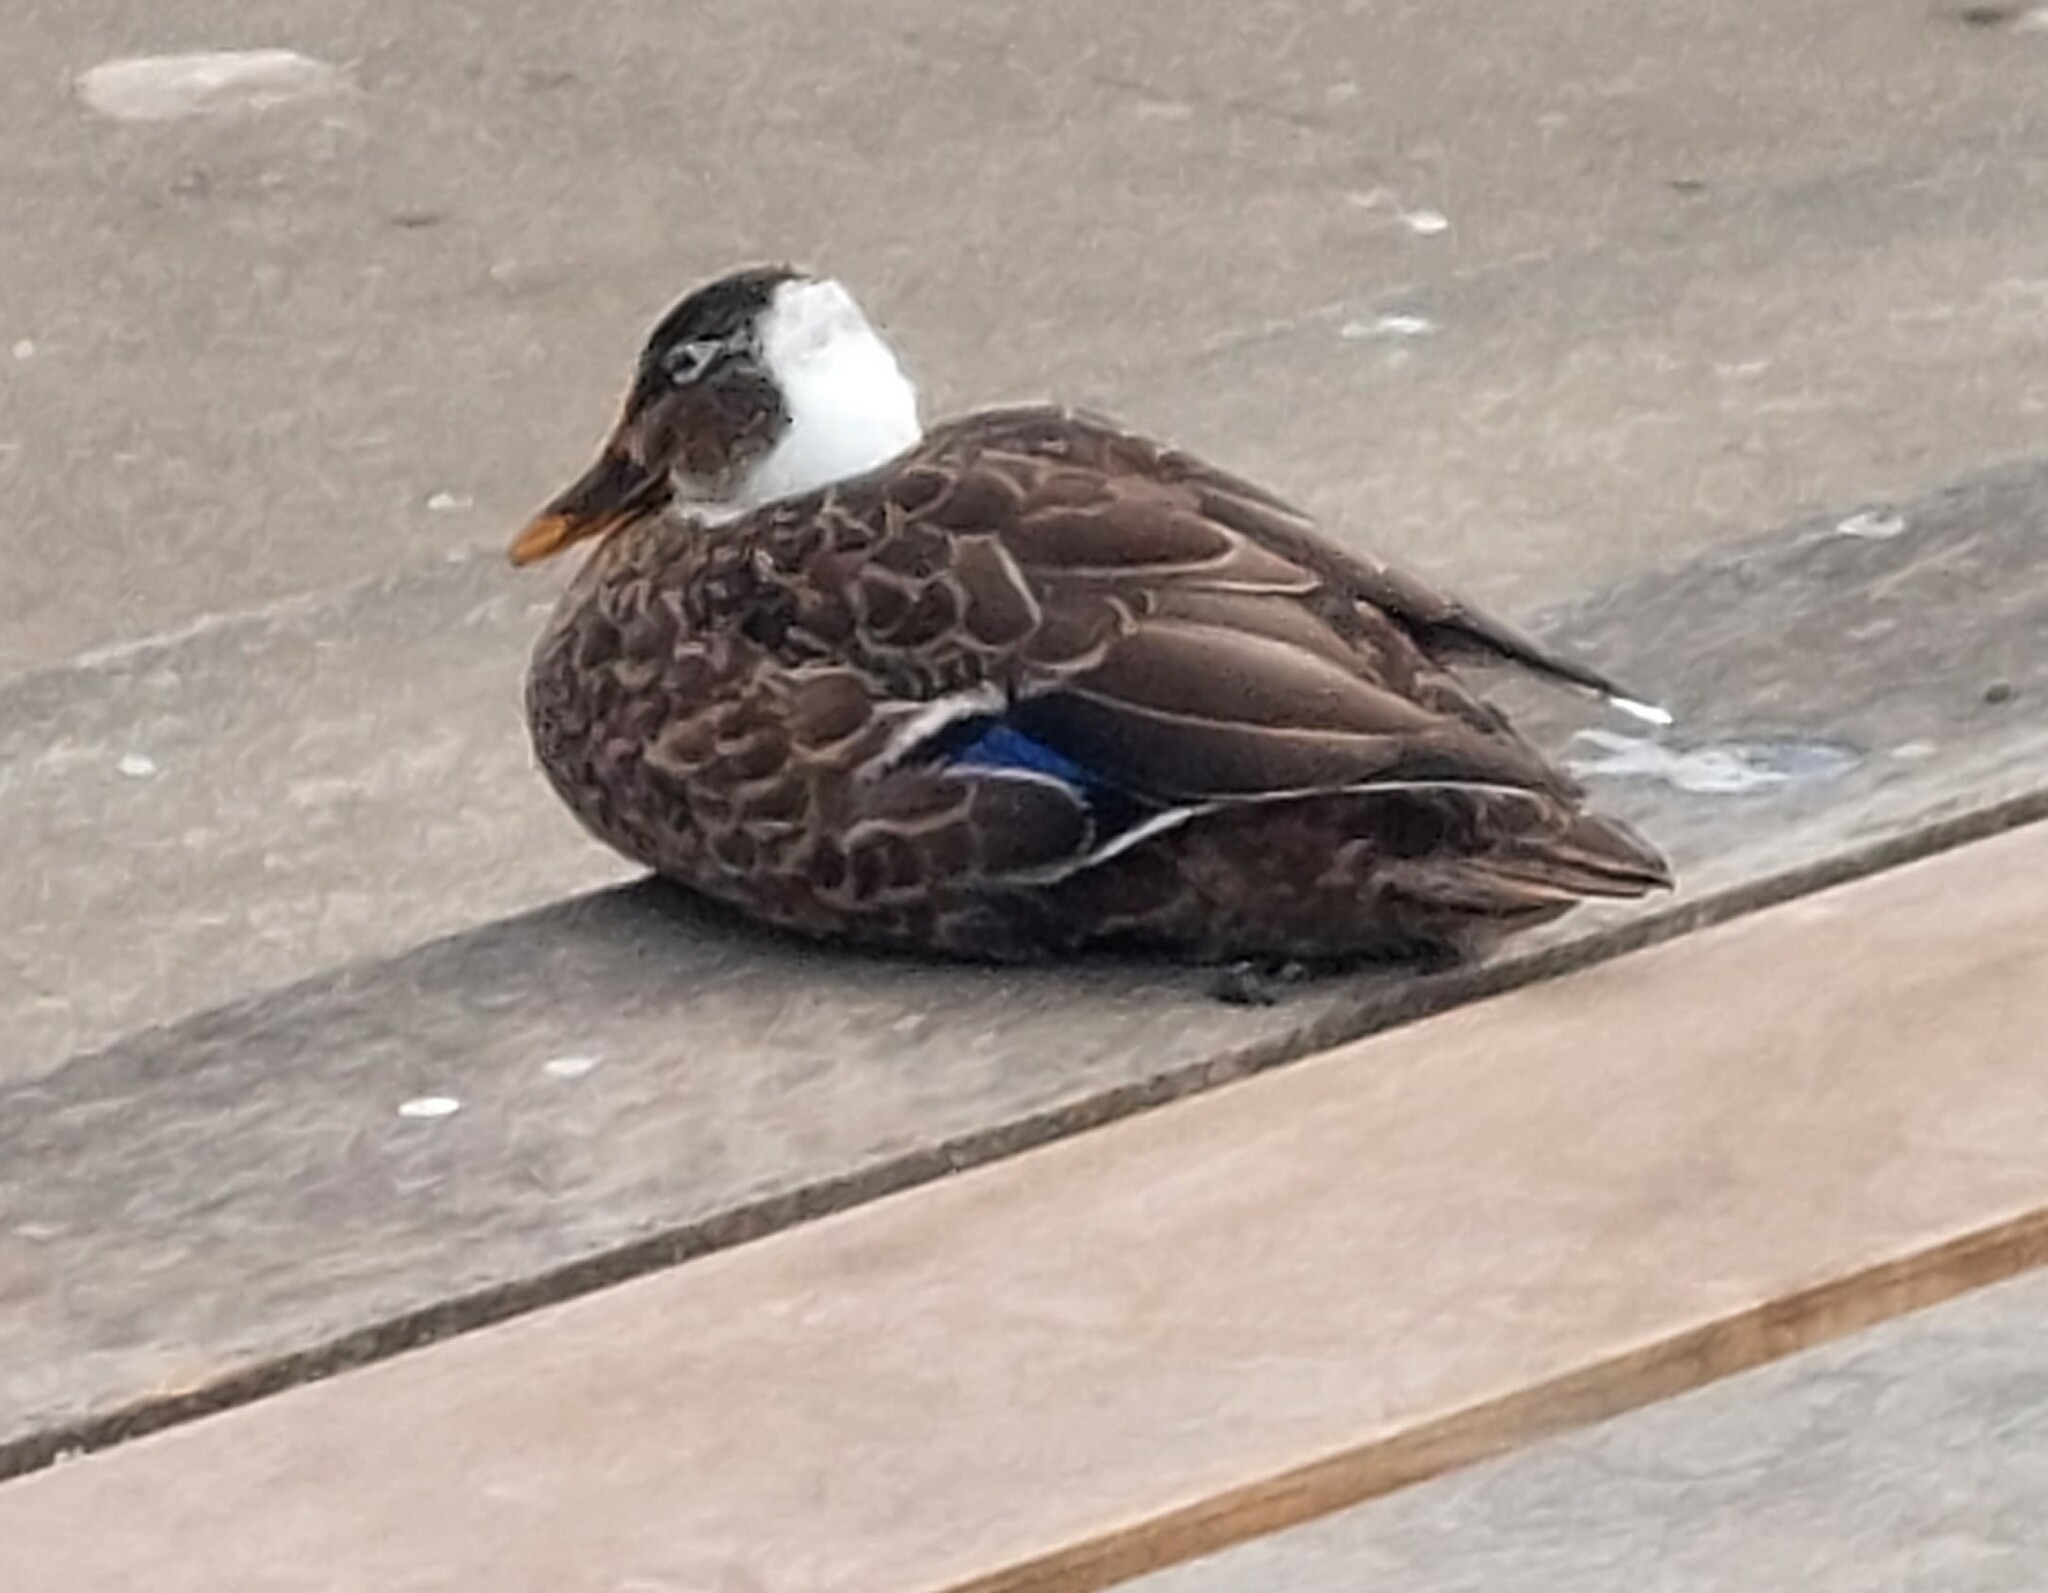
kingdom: Animalia
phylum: Chordata
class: Aves
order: Anseriformes
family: Anatidae
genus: Anas
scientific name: Anas platyrhynchos
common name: Mallard
